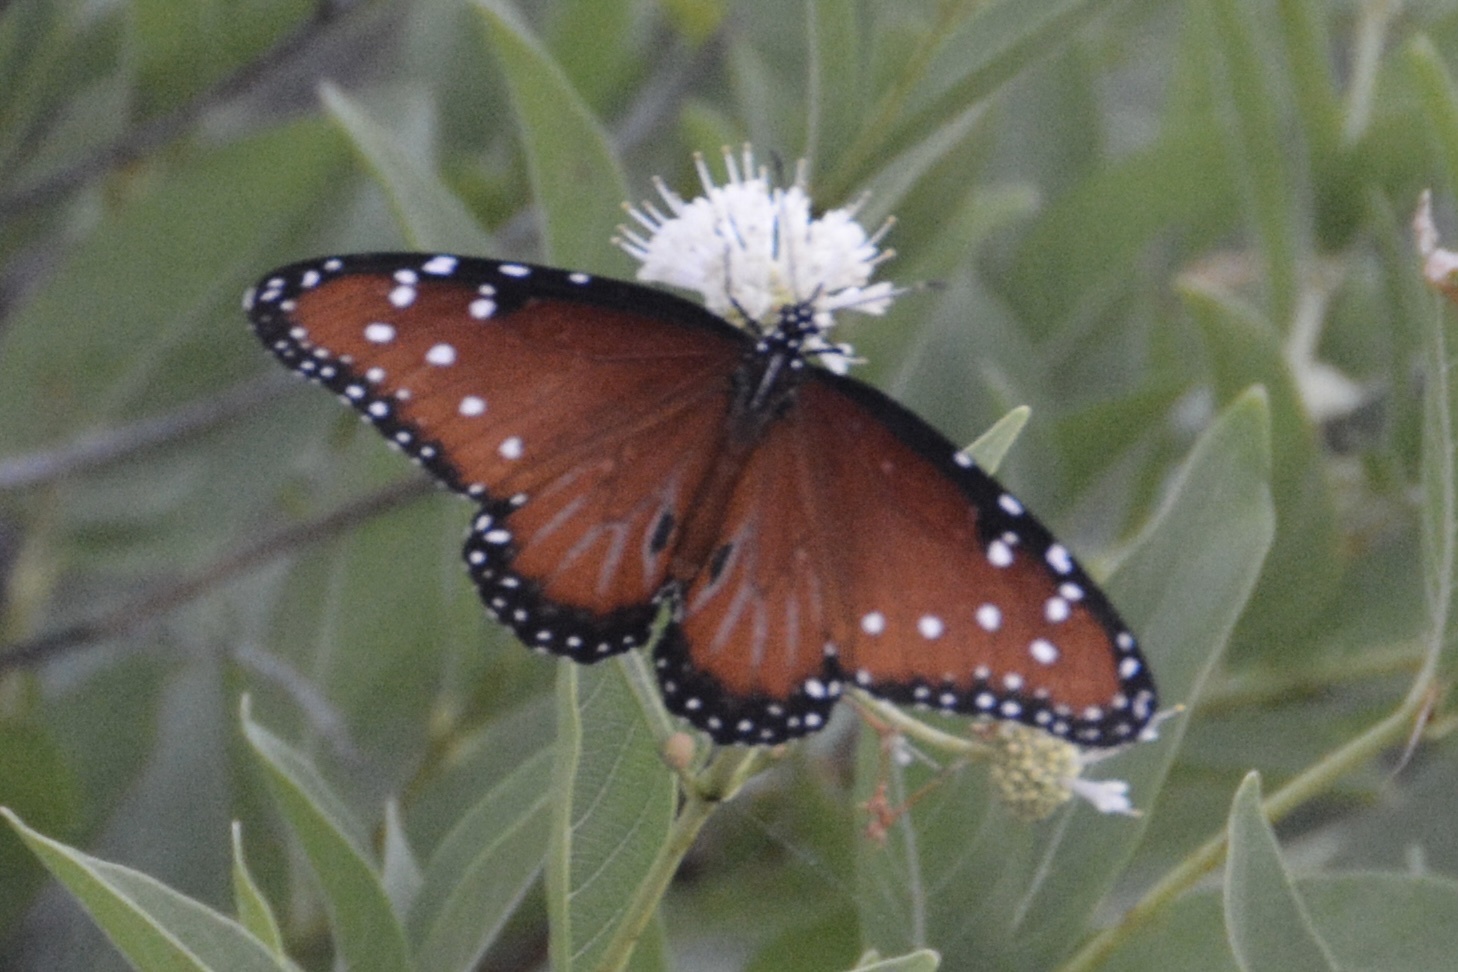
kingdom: Animalia
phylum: Arthropoda
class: Insecta
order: Lepidoptera
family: Nymphalidae
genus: Danaus
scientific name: Danaus gilippus
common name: Queen
